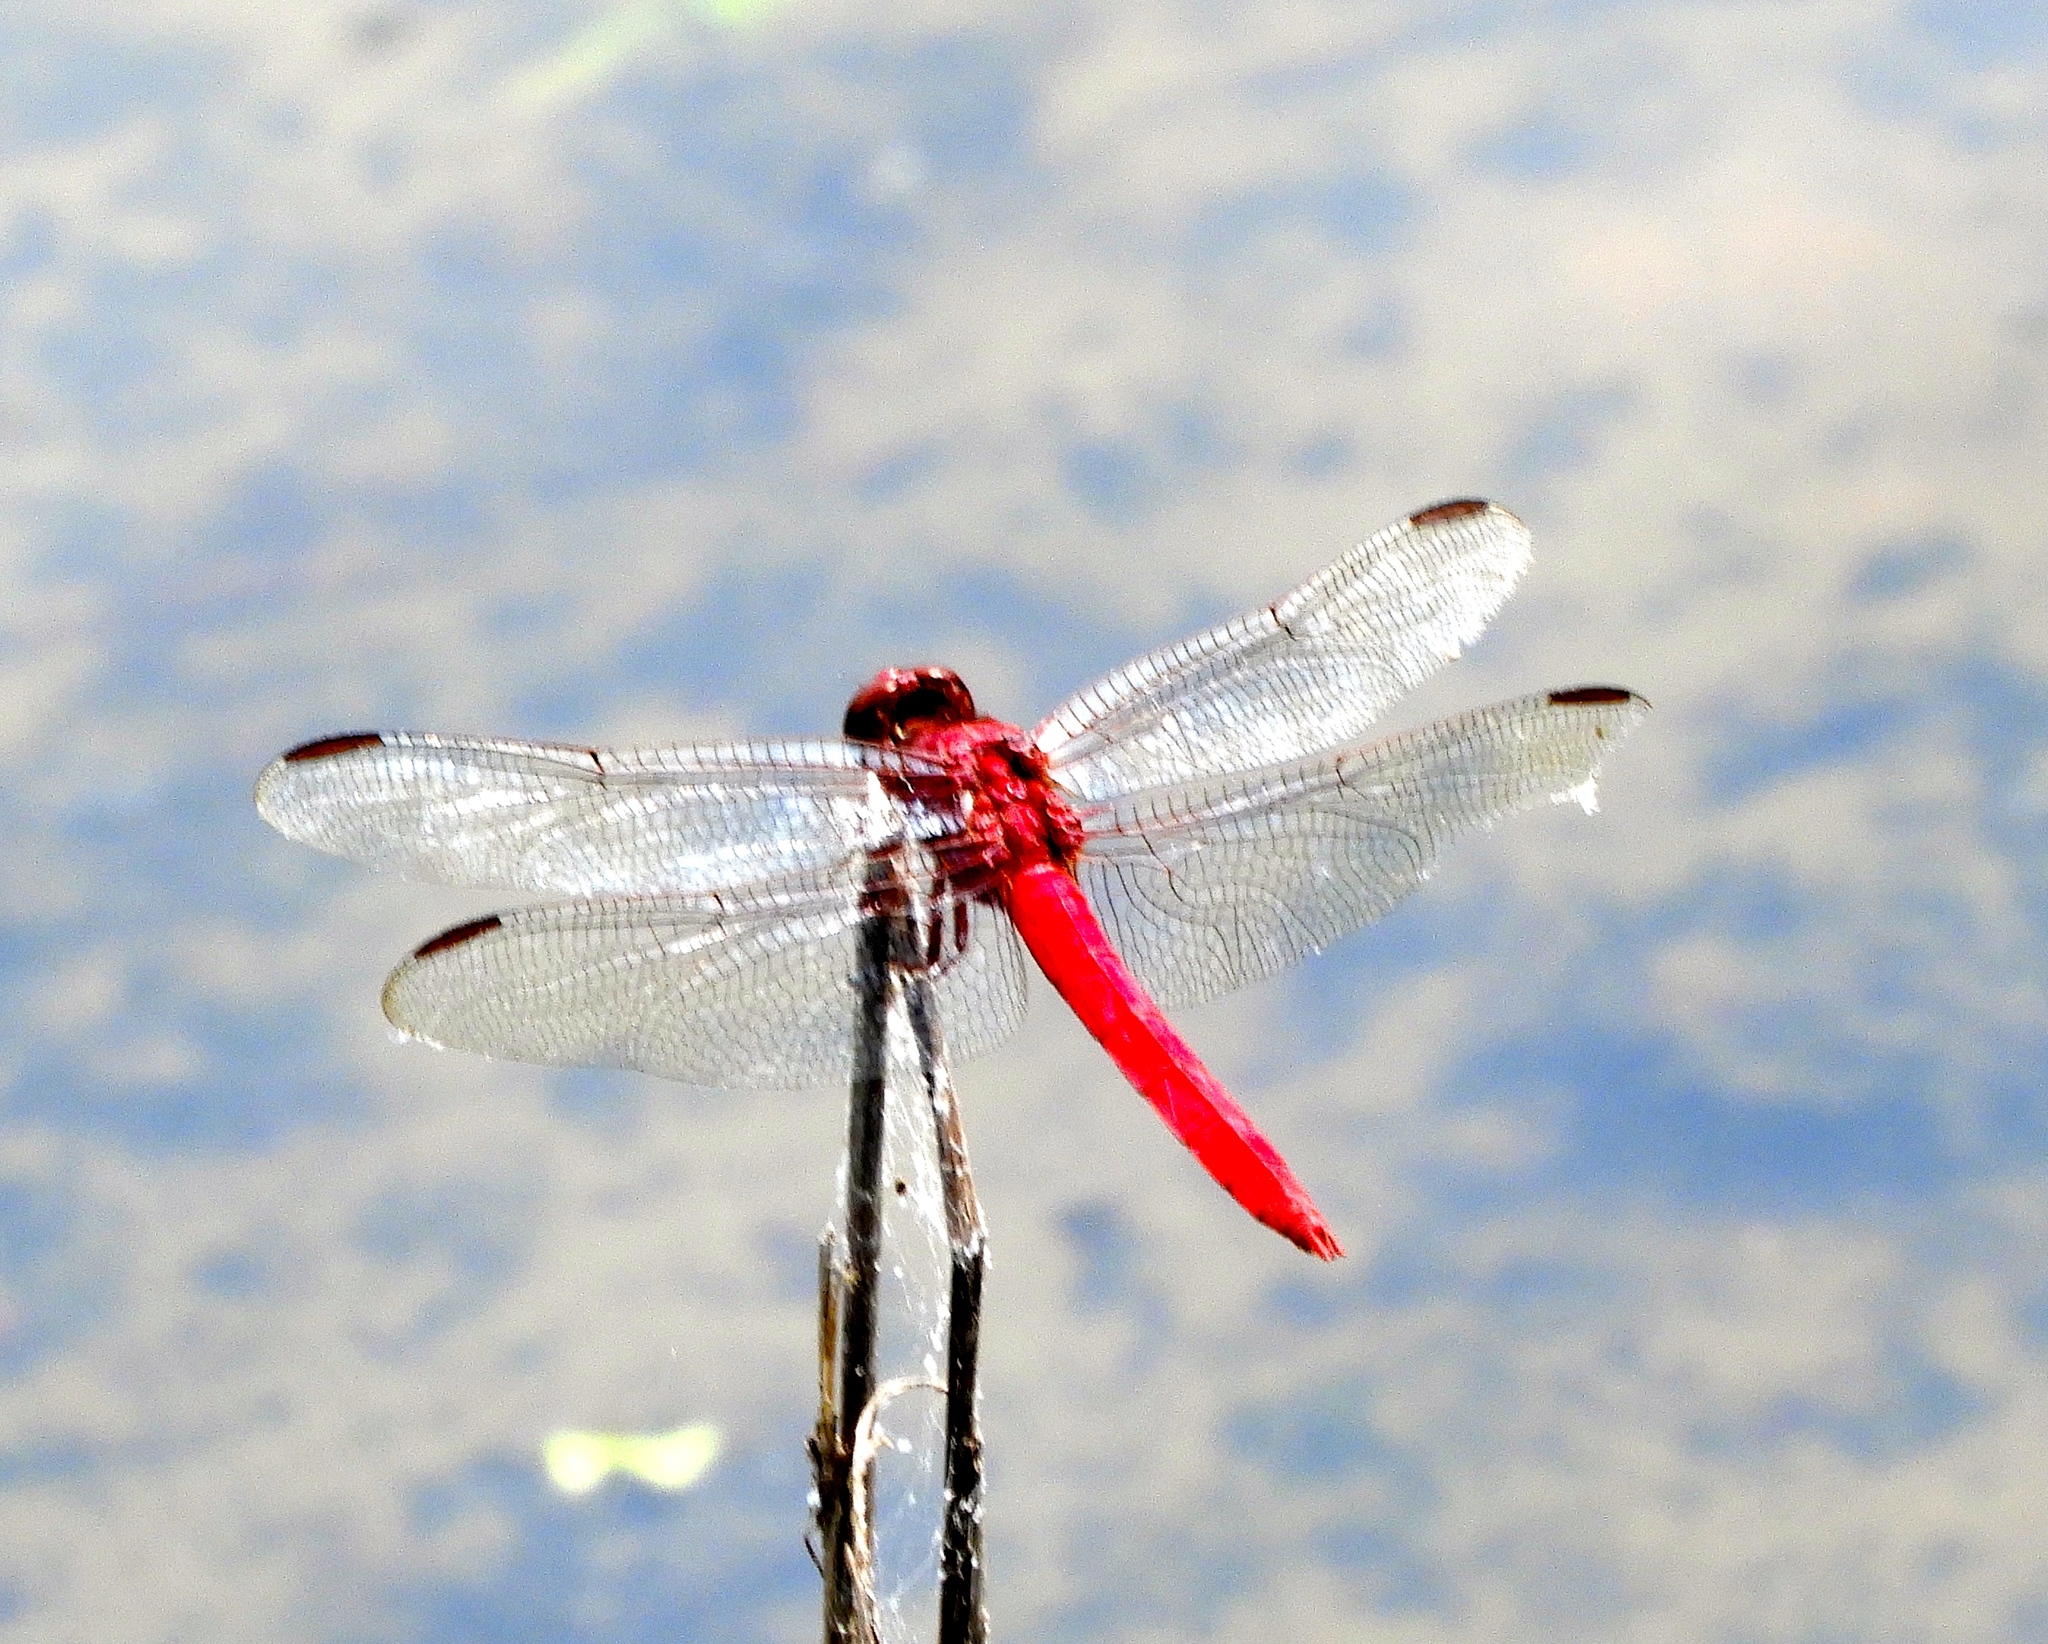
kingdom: Animalia
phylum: Arthropoda
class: Insecta
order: Odonata
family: Libellulidae
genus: Orthemis
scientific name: Orthemis discolor
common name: Carmine skimmer
